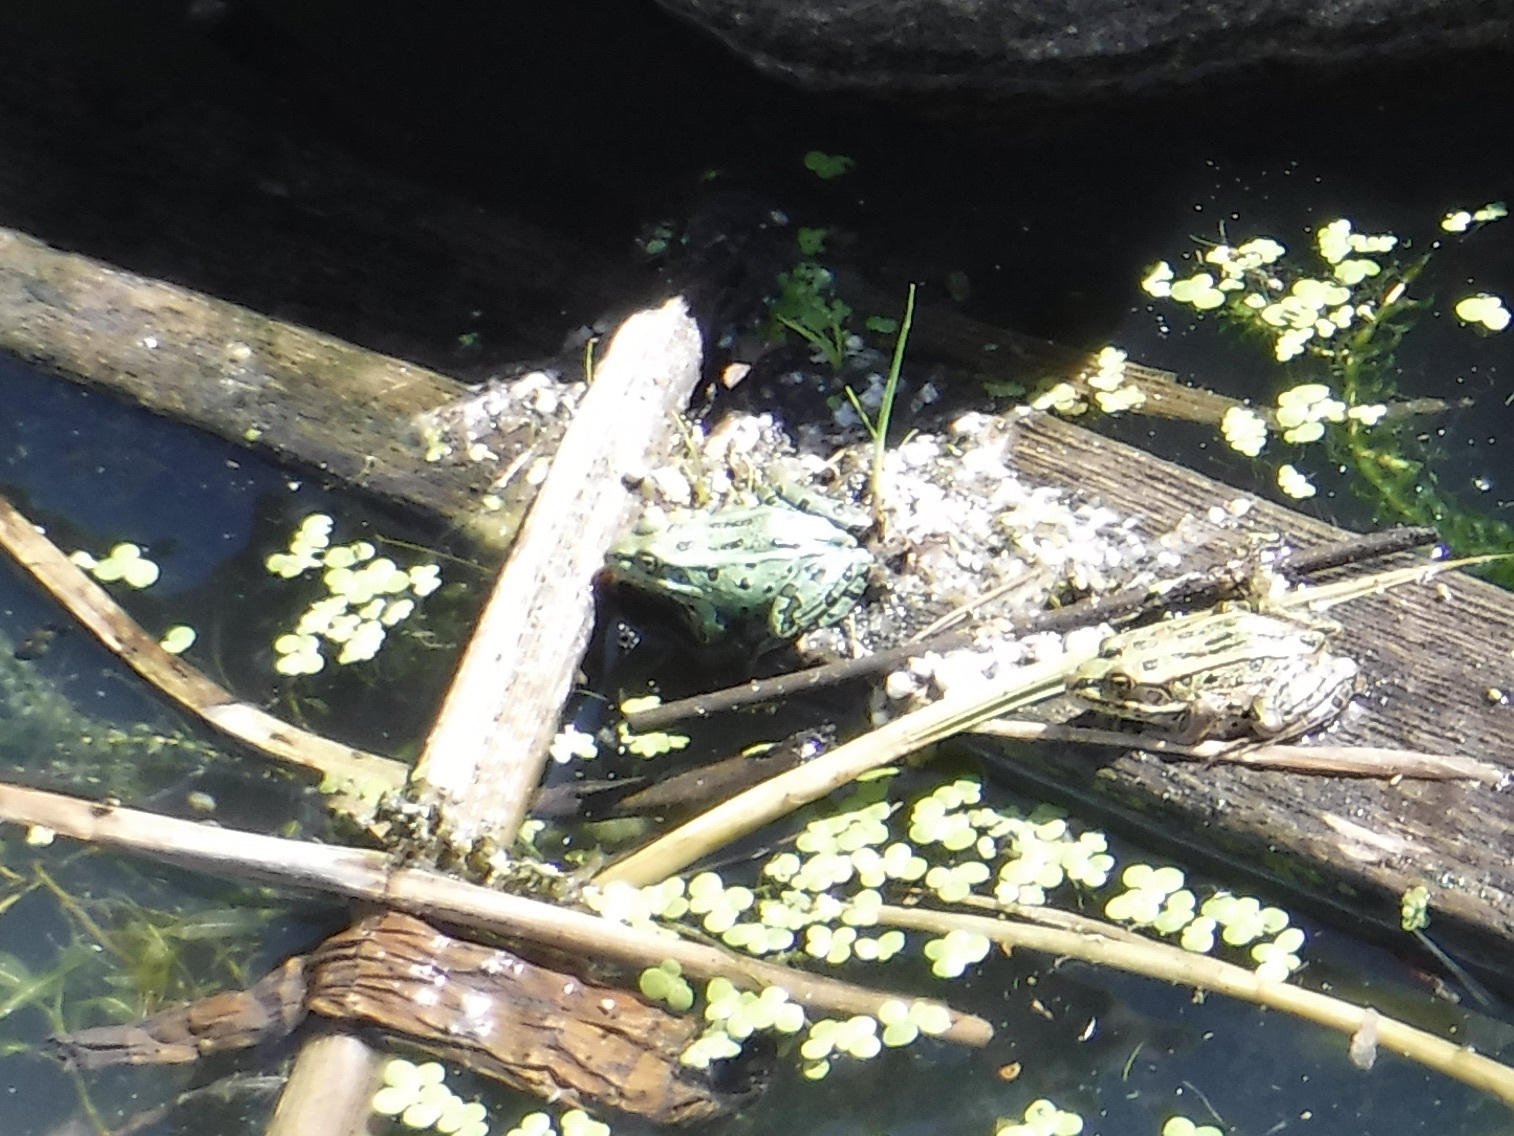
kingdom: Animalia
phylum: Chordata
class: Amphibia
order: Anura
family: Ranidae
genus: Lithobates
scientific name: Lithobates pipiens
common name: Northern leopard frog
